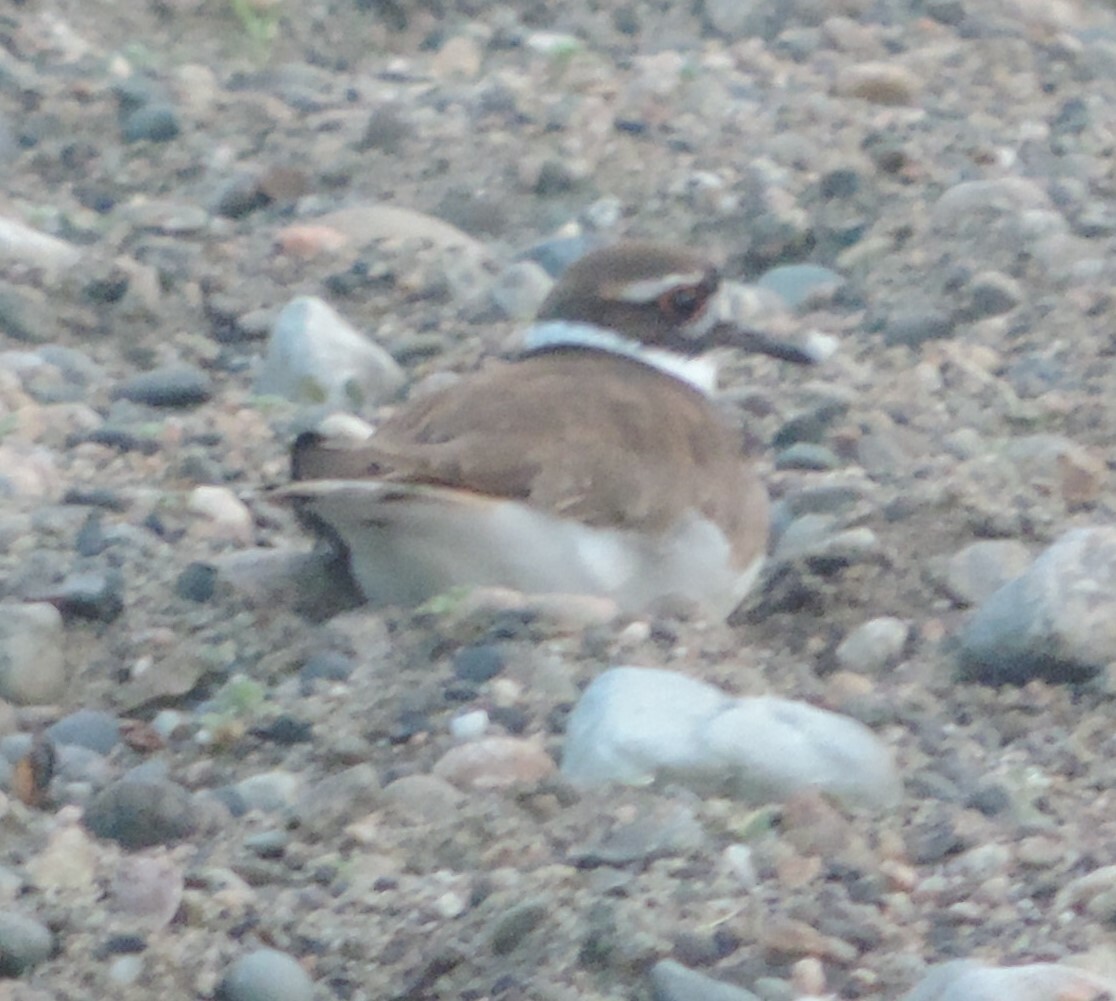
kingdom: Animalia
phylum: Chordata
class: Aves
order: Charadriiformes
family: Charadriidae
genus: Charadrius
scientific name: Charadrius vociferus
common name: Killdeer
